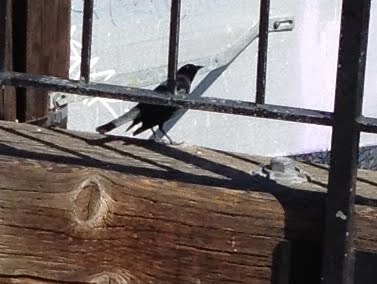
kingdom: Animalia
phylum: Chordata
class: Aves
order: Passeriformes
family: Icteridae
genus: Euphagus
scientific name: Euphagus cyanocephalus
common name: Brewer's blackbird
